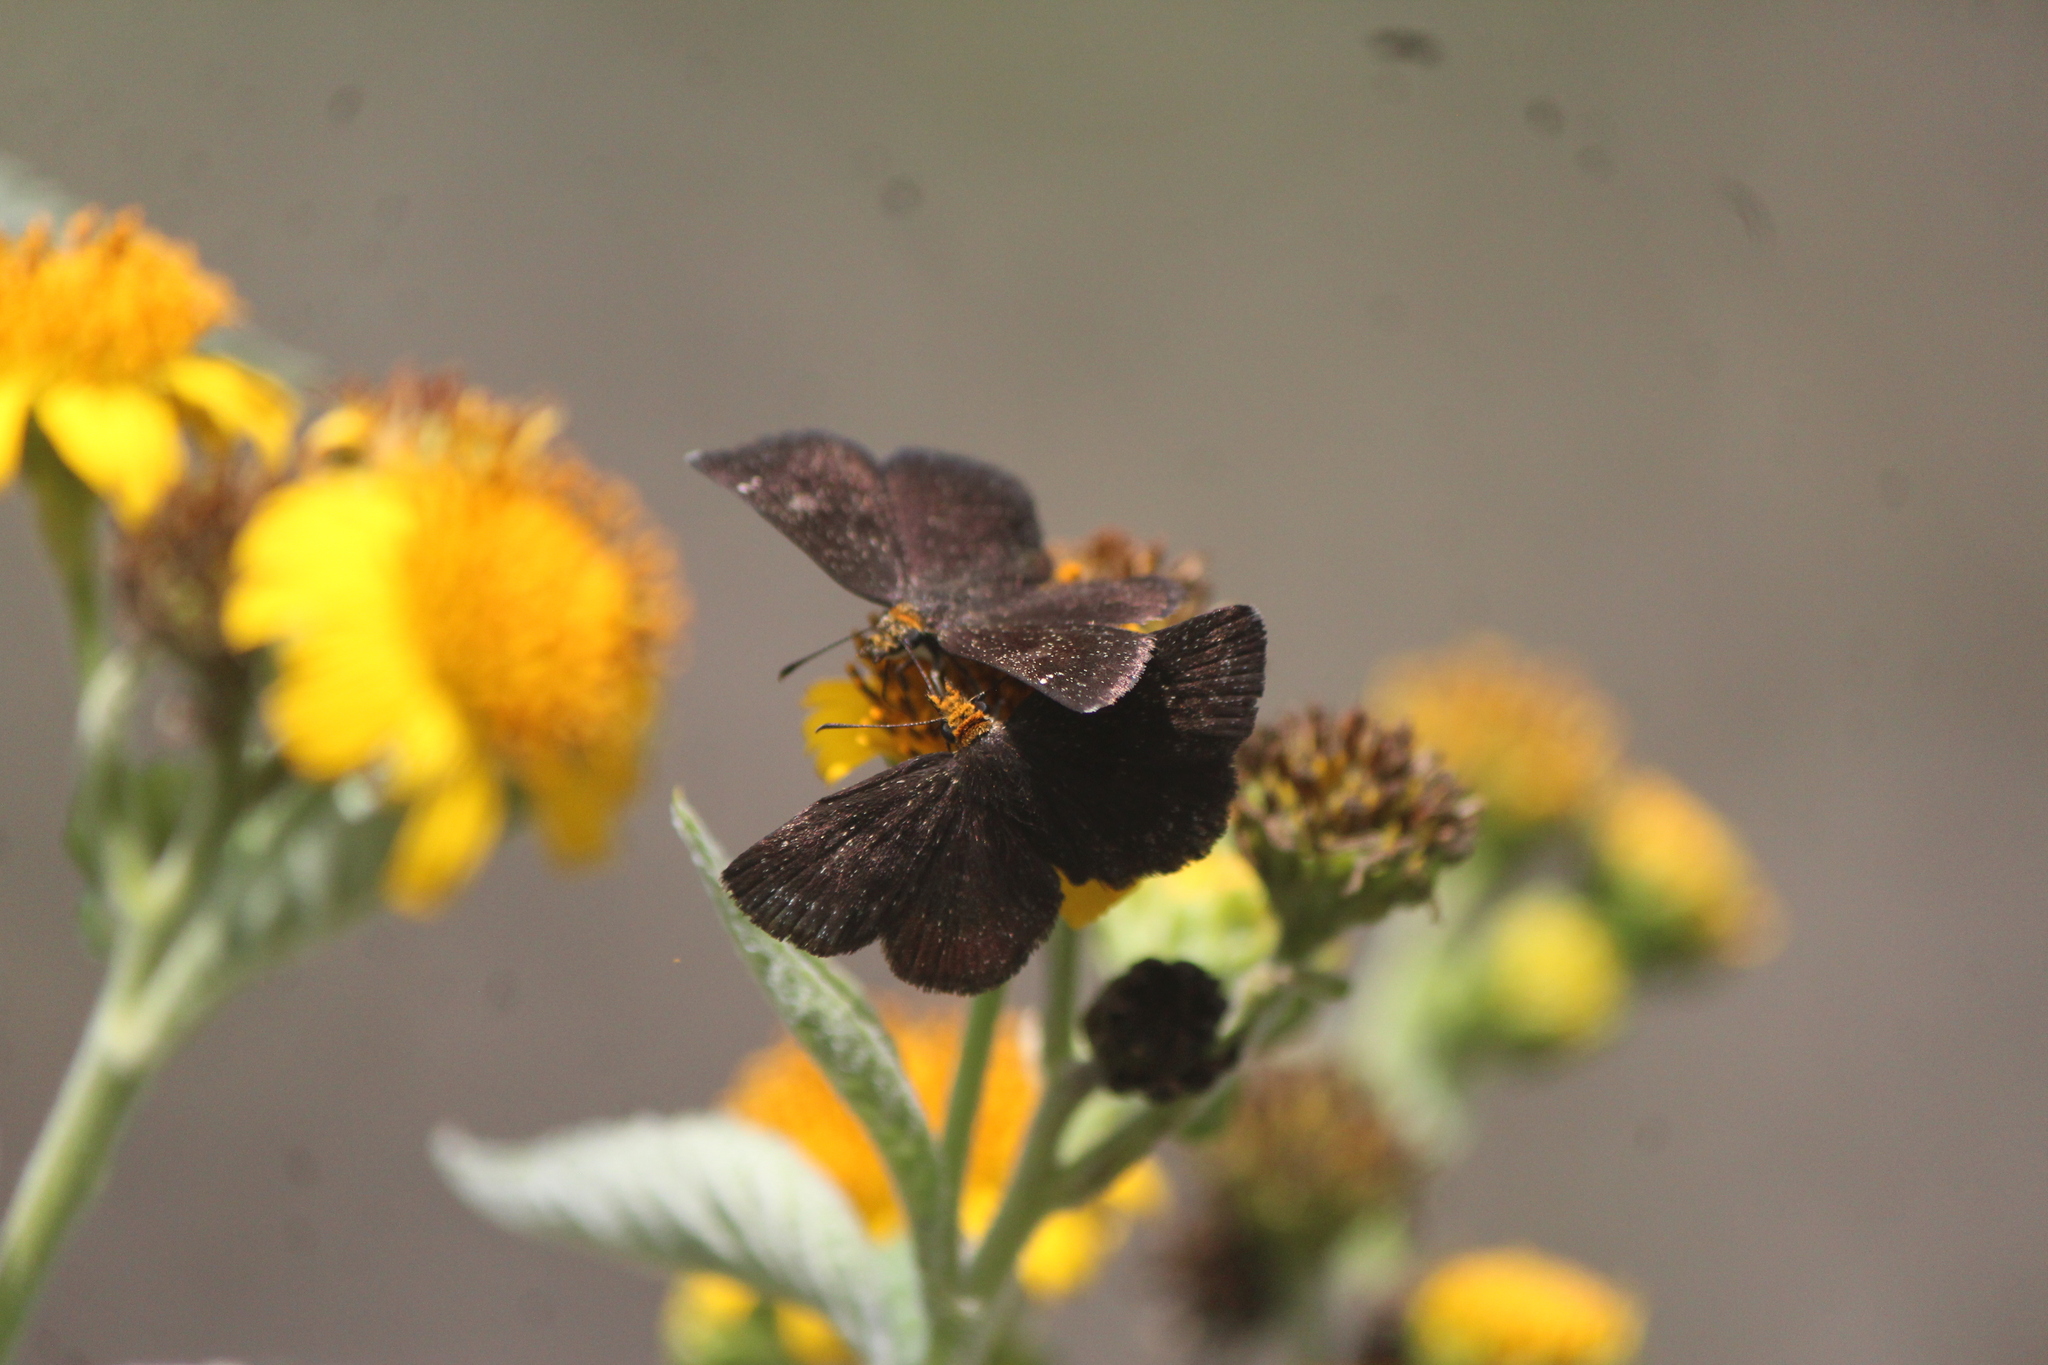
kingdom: Animalia
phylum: Arthropoda
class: Insecta
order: Lepidoptera
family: Hesperiidae
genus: Staphylus
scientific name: Staphylus ceos
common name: Golden-headed scallopwing
